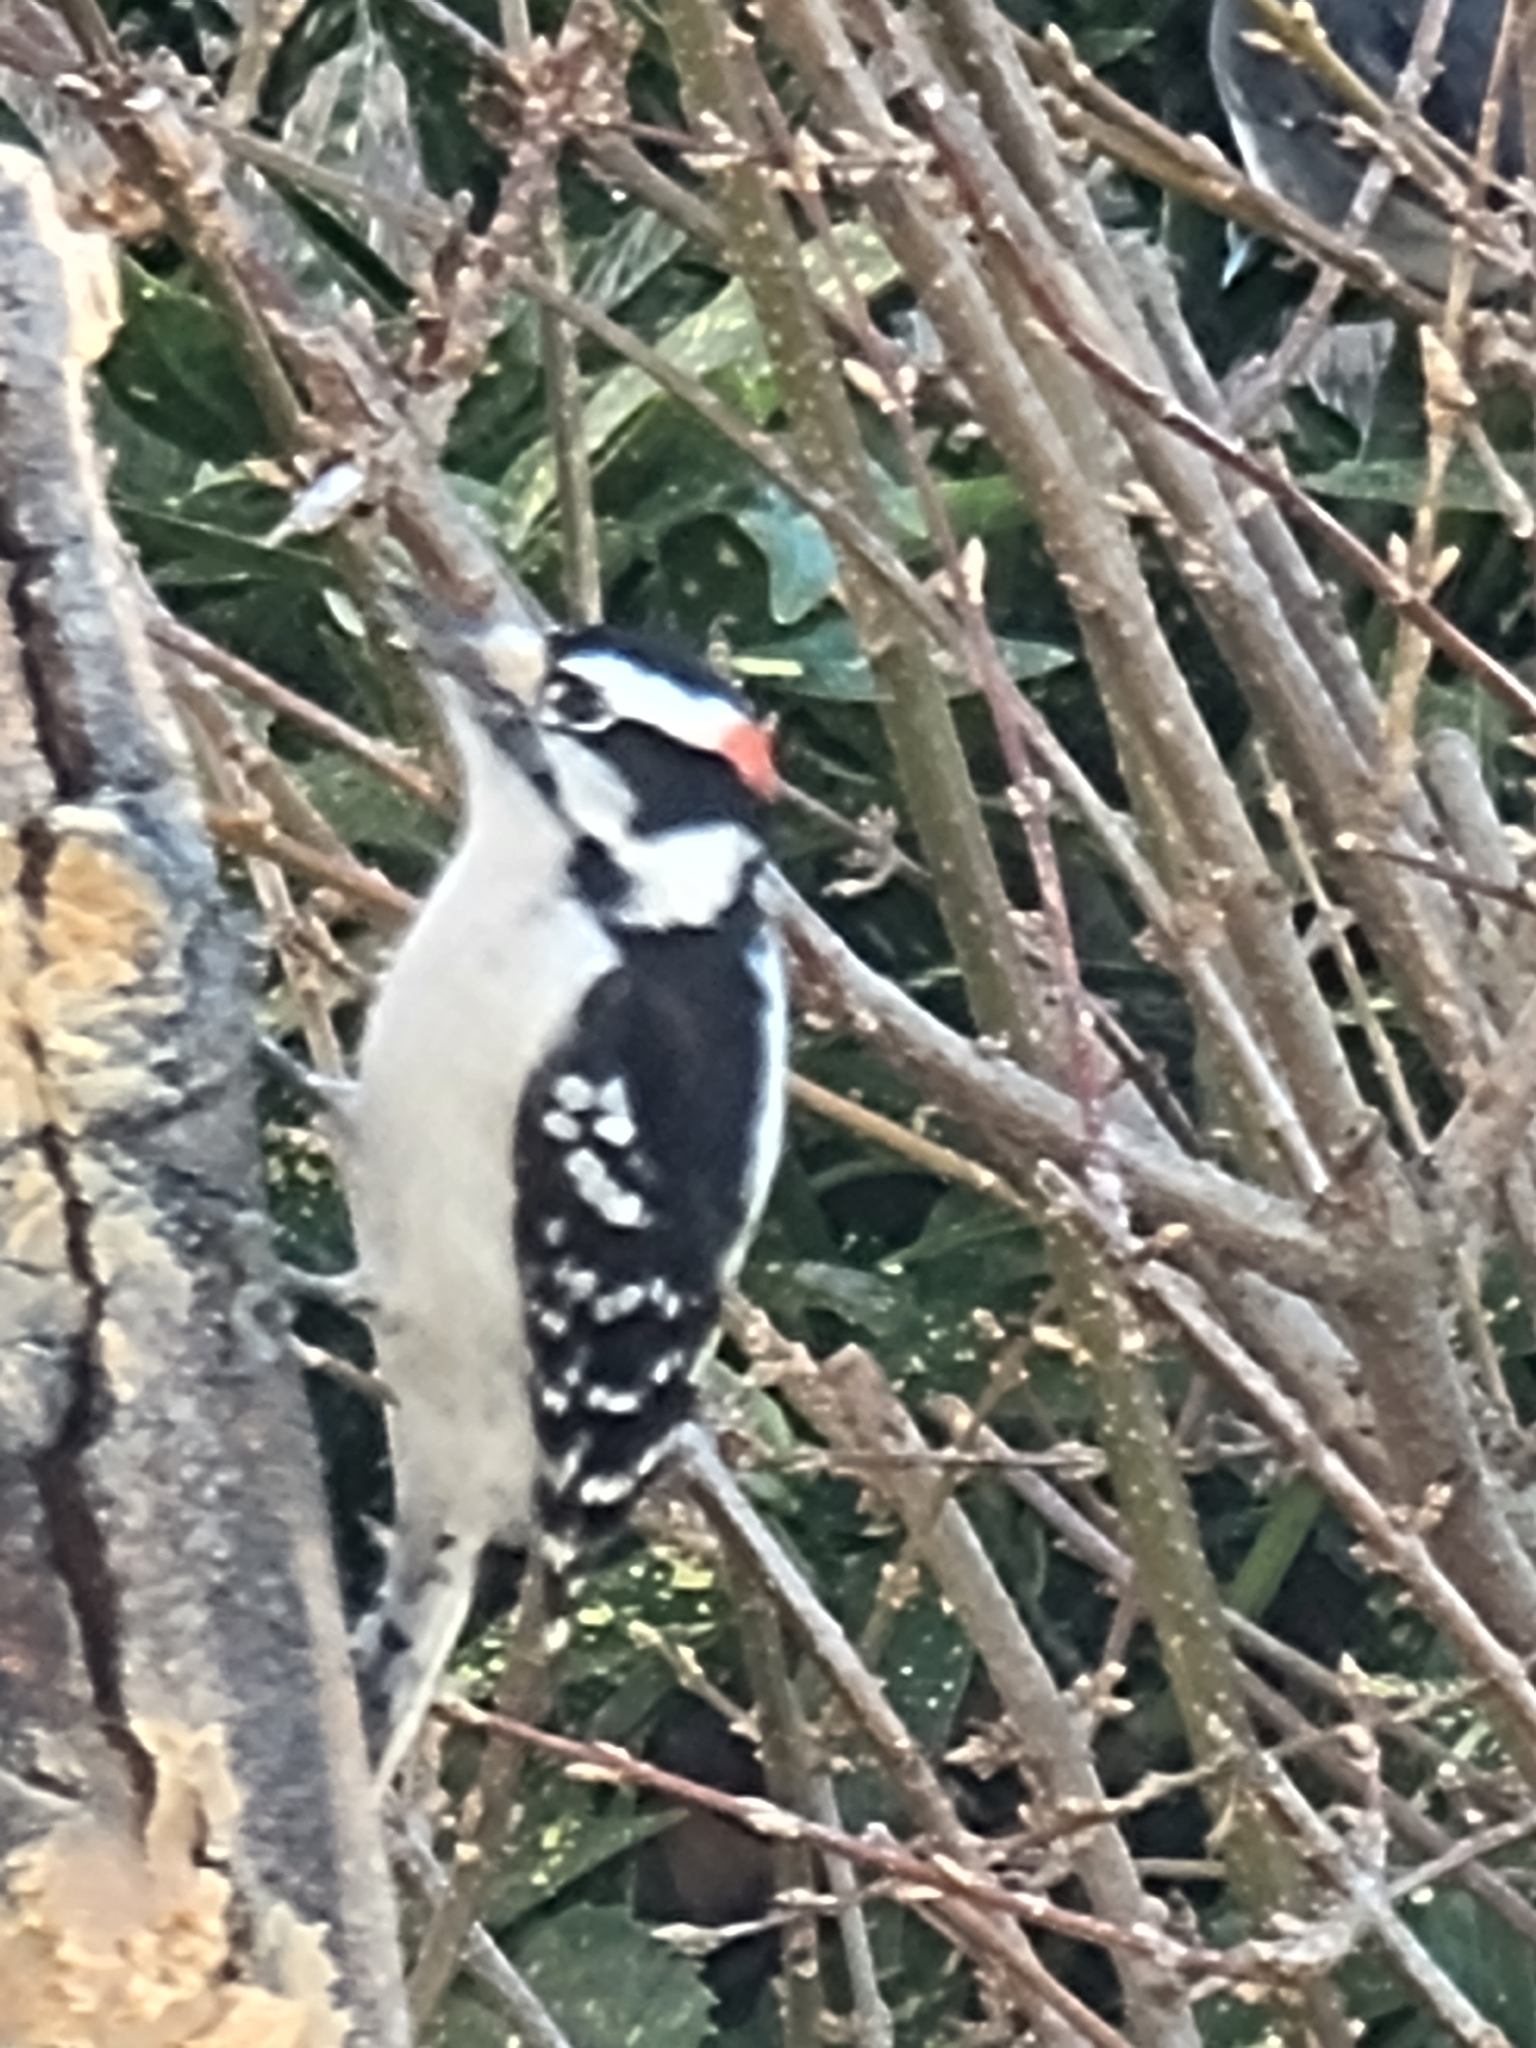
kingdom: Animalia
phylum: Chordata
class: Aves
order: Piciformes
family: Picidae
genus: Dryobates
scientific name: Dryobates pubescens
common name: Downy woodpecker
